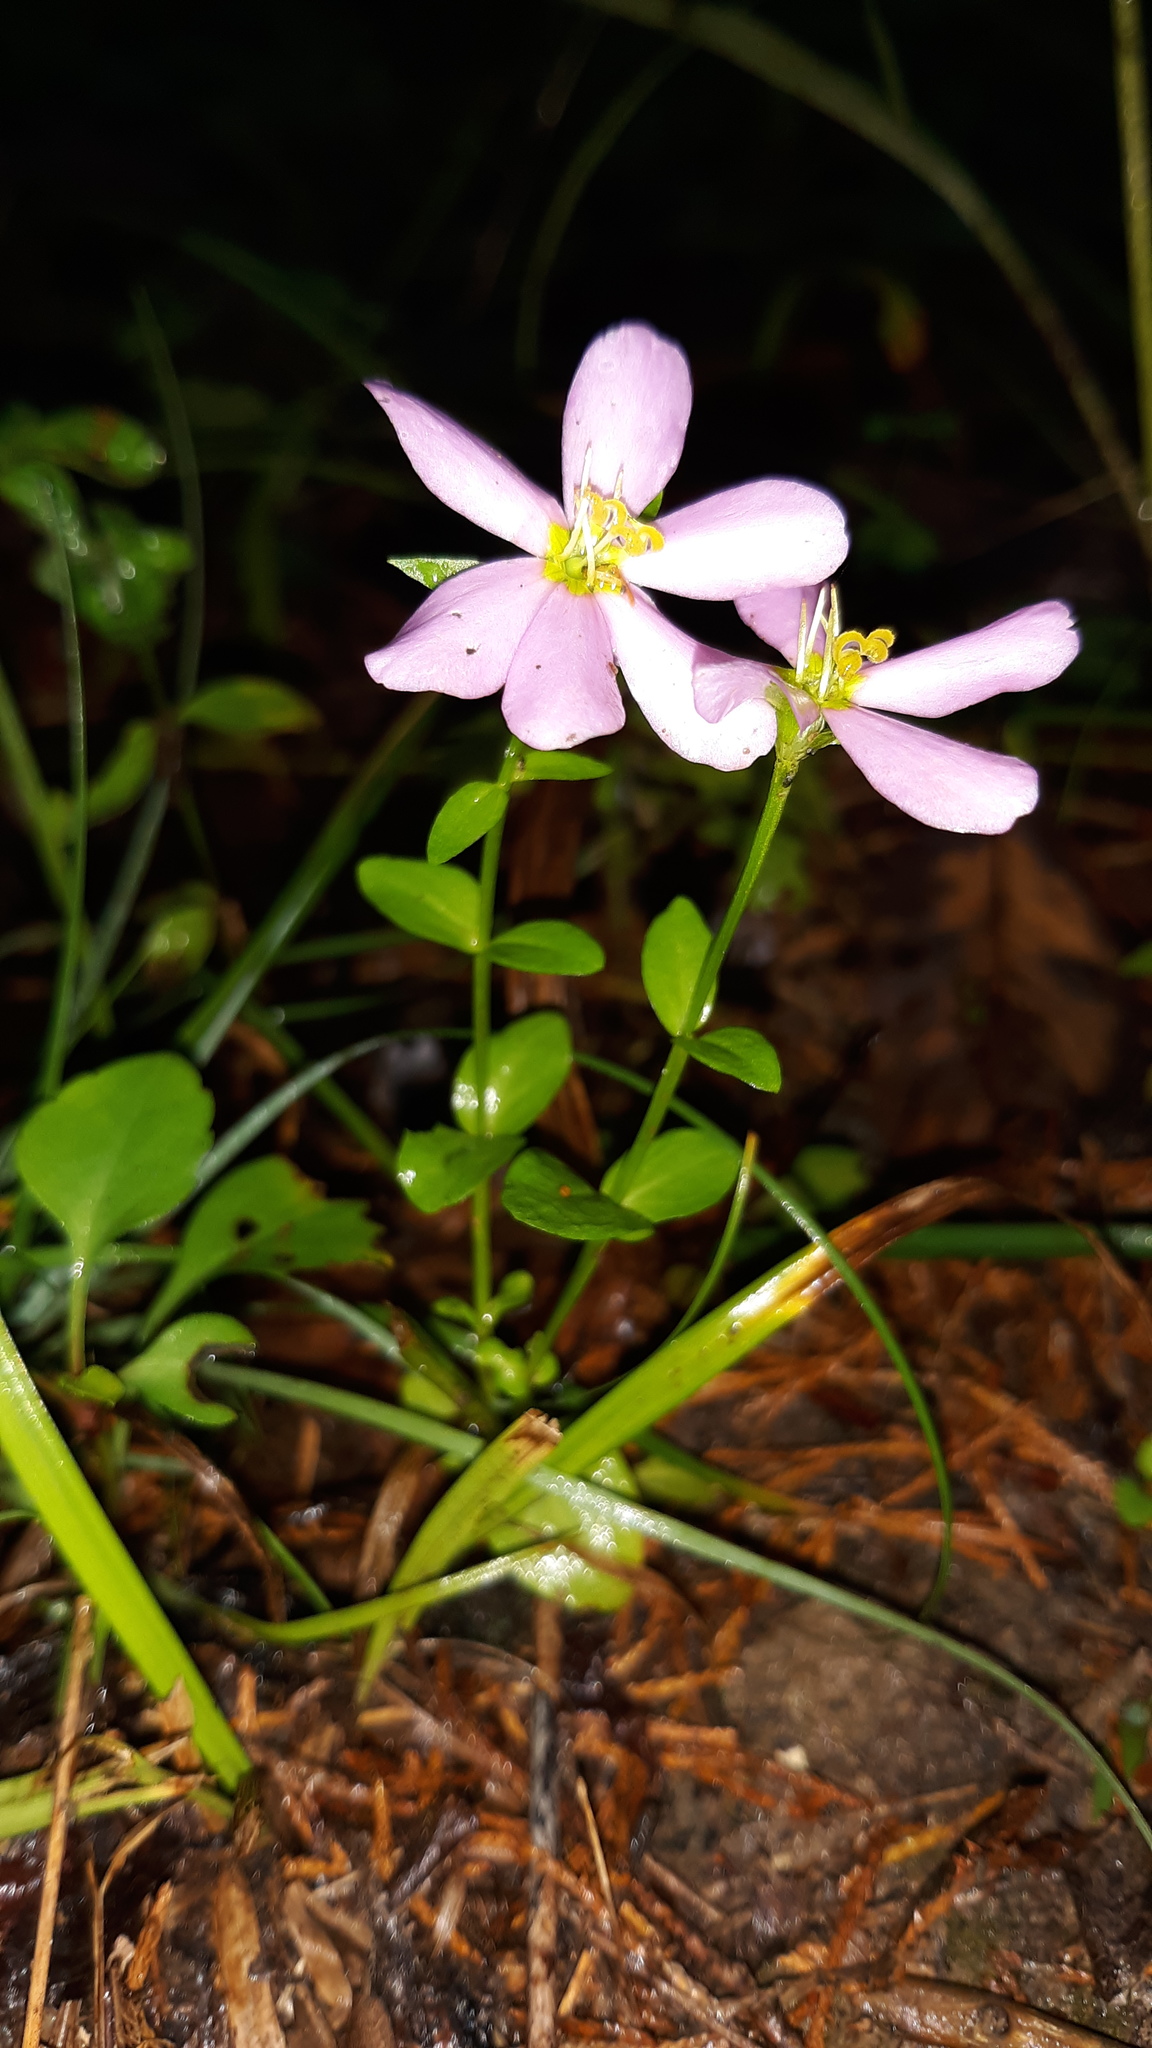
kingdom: Plantae
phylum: Tracheophyta
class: Magnoliopsida
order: Gentianales
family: Gentianaceae
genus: Sabatia
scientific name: Sabatia angularis
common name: Rose-pink
